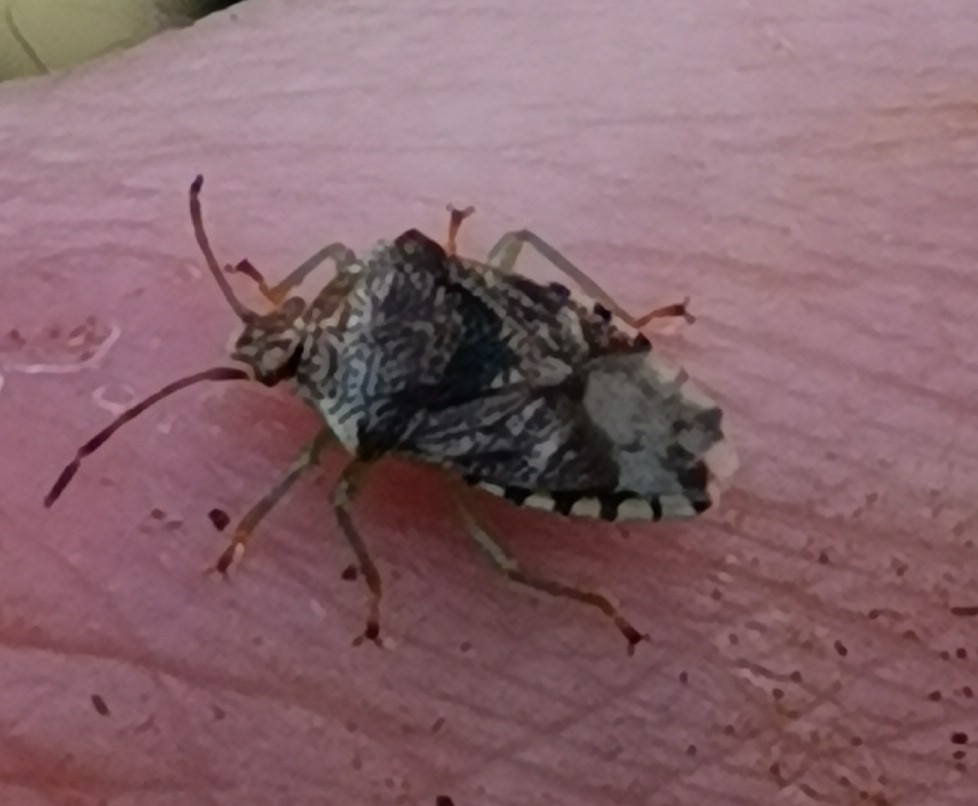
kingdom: Animalia
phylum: Arthropoda
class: Insecta
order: Hemiptera
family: Acanthosomatidae
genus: Elasmucha
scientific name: Elasmucha grisea
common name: Parent bug
